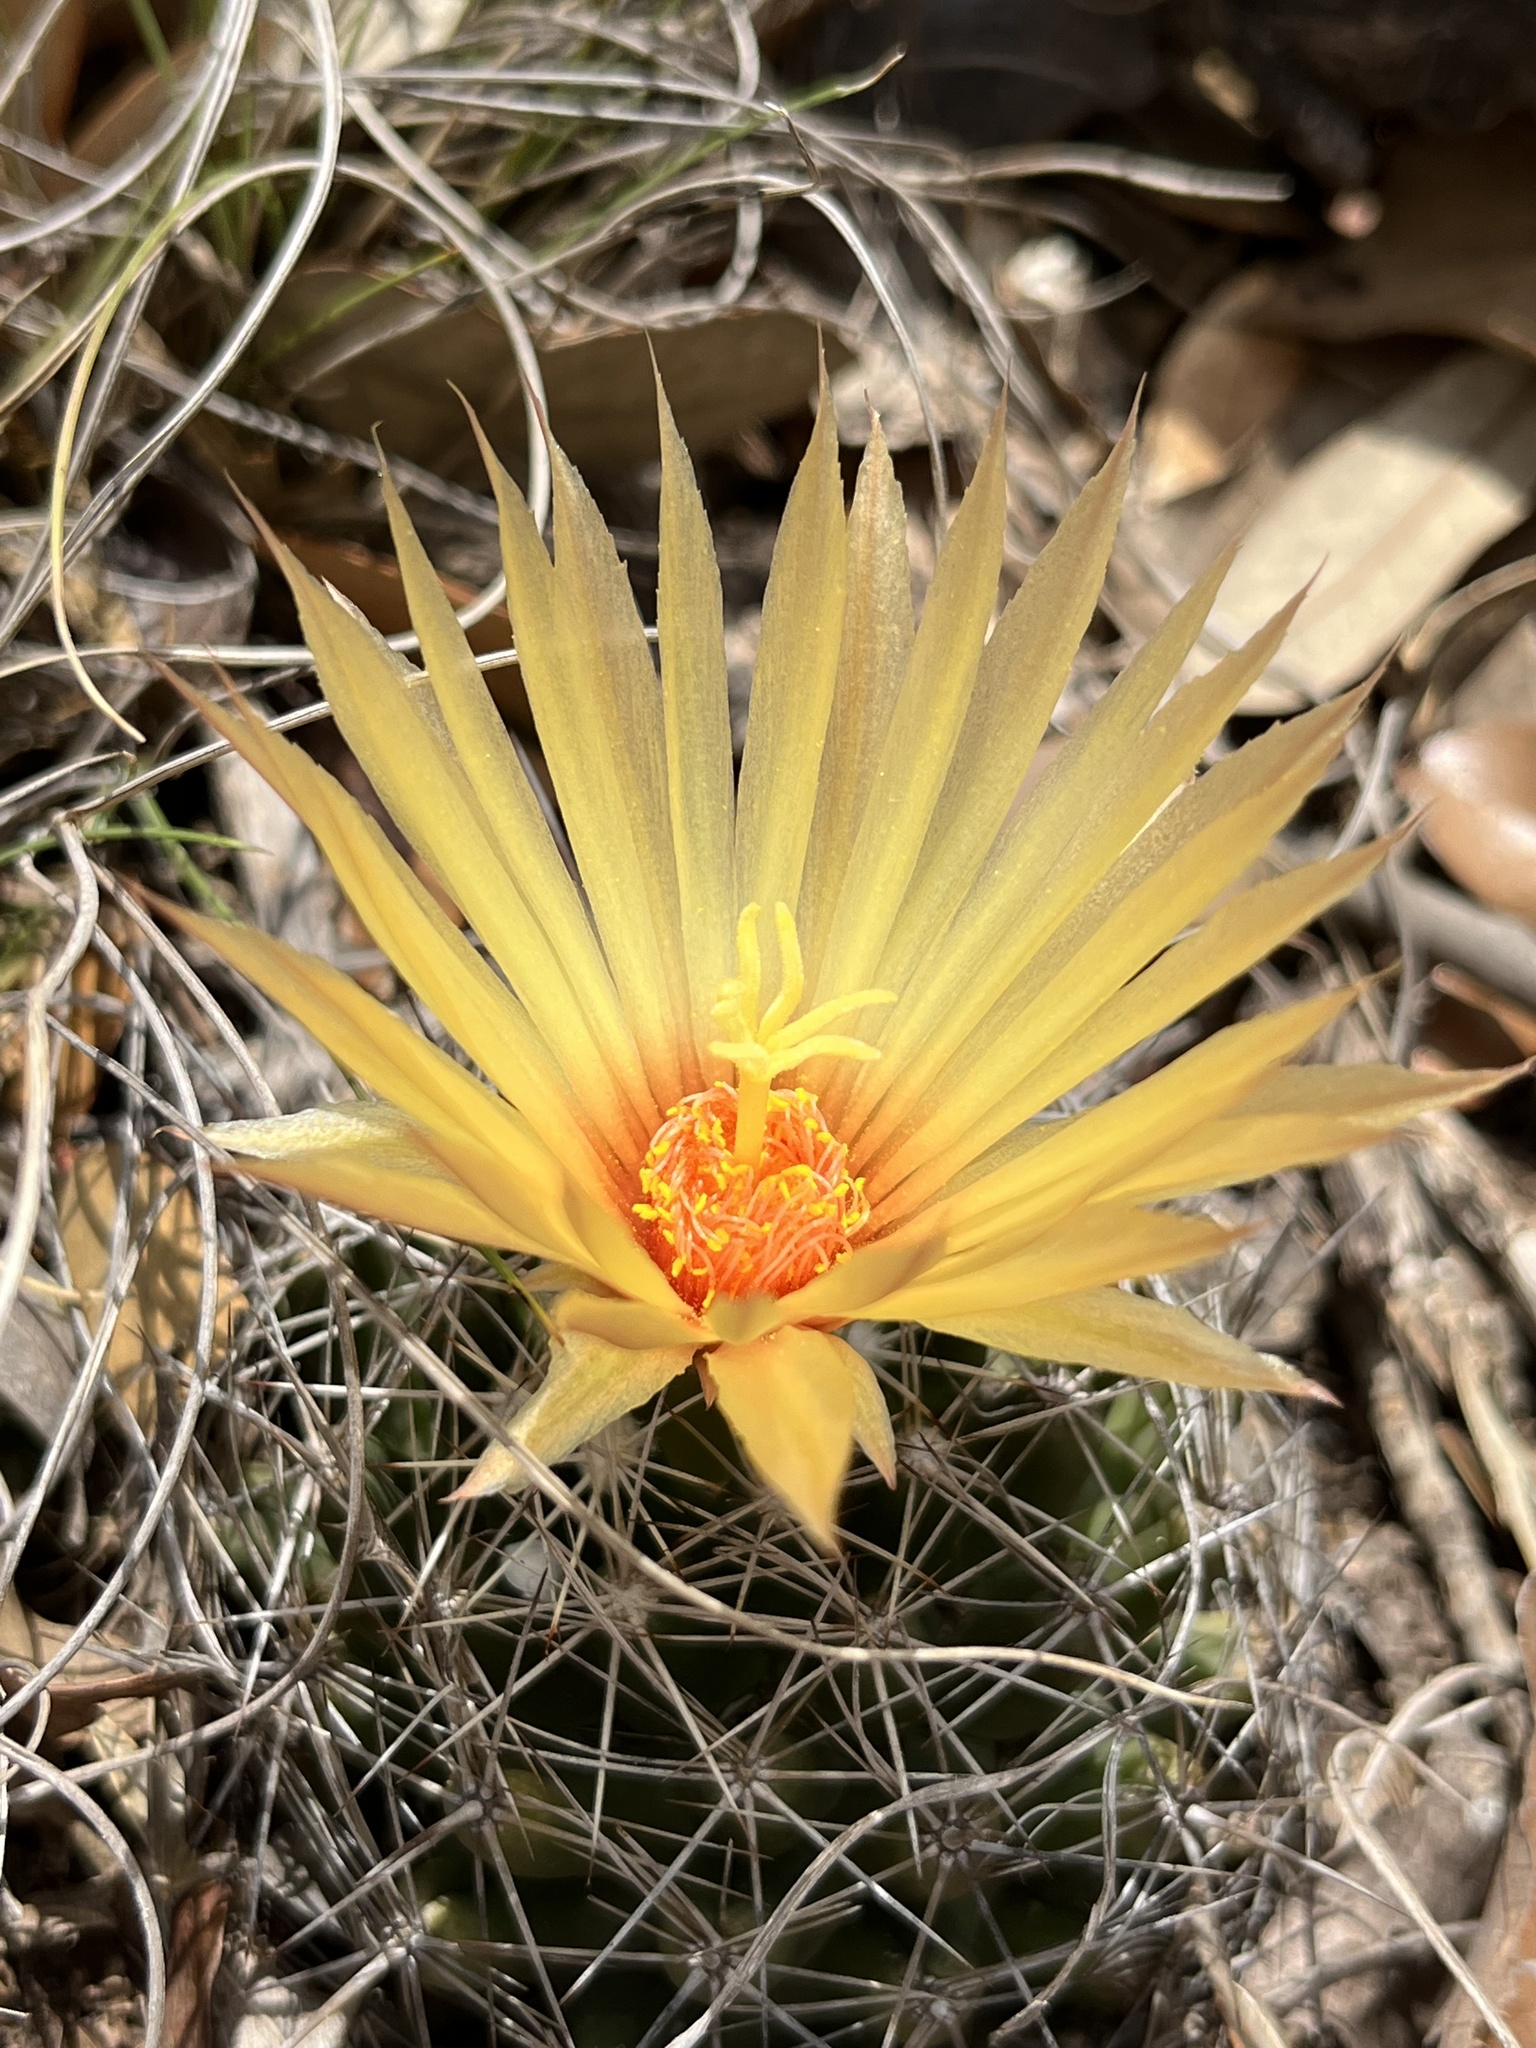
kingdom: Plantae
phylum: Tracheophyta
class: Magnoliopsida
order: Caryophyllales
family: Cactaceae
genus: Coryphantha
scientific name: Coryphantha sulcata
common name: Finger cactus
